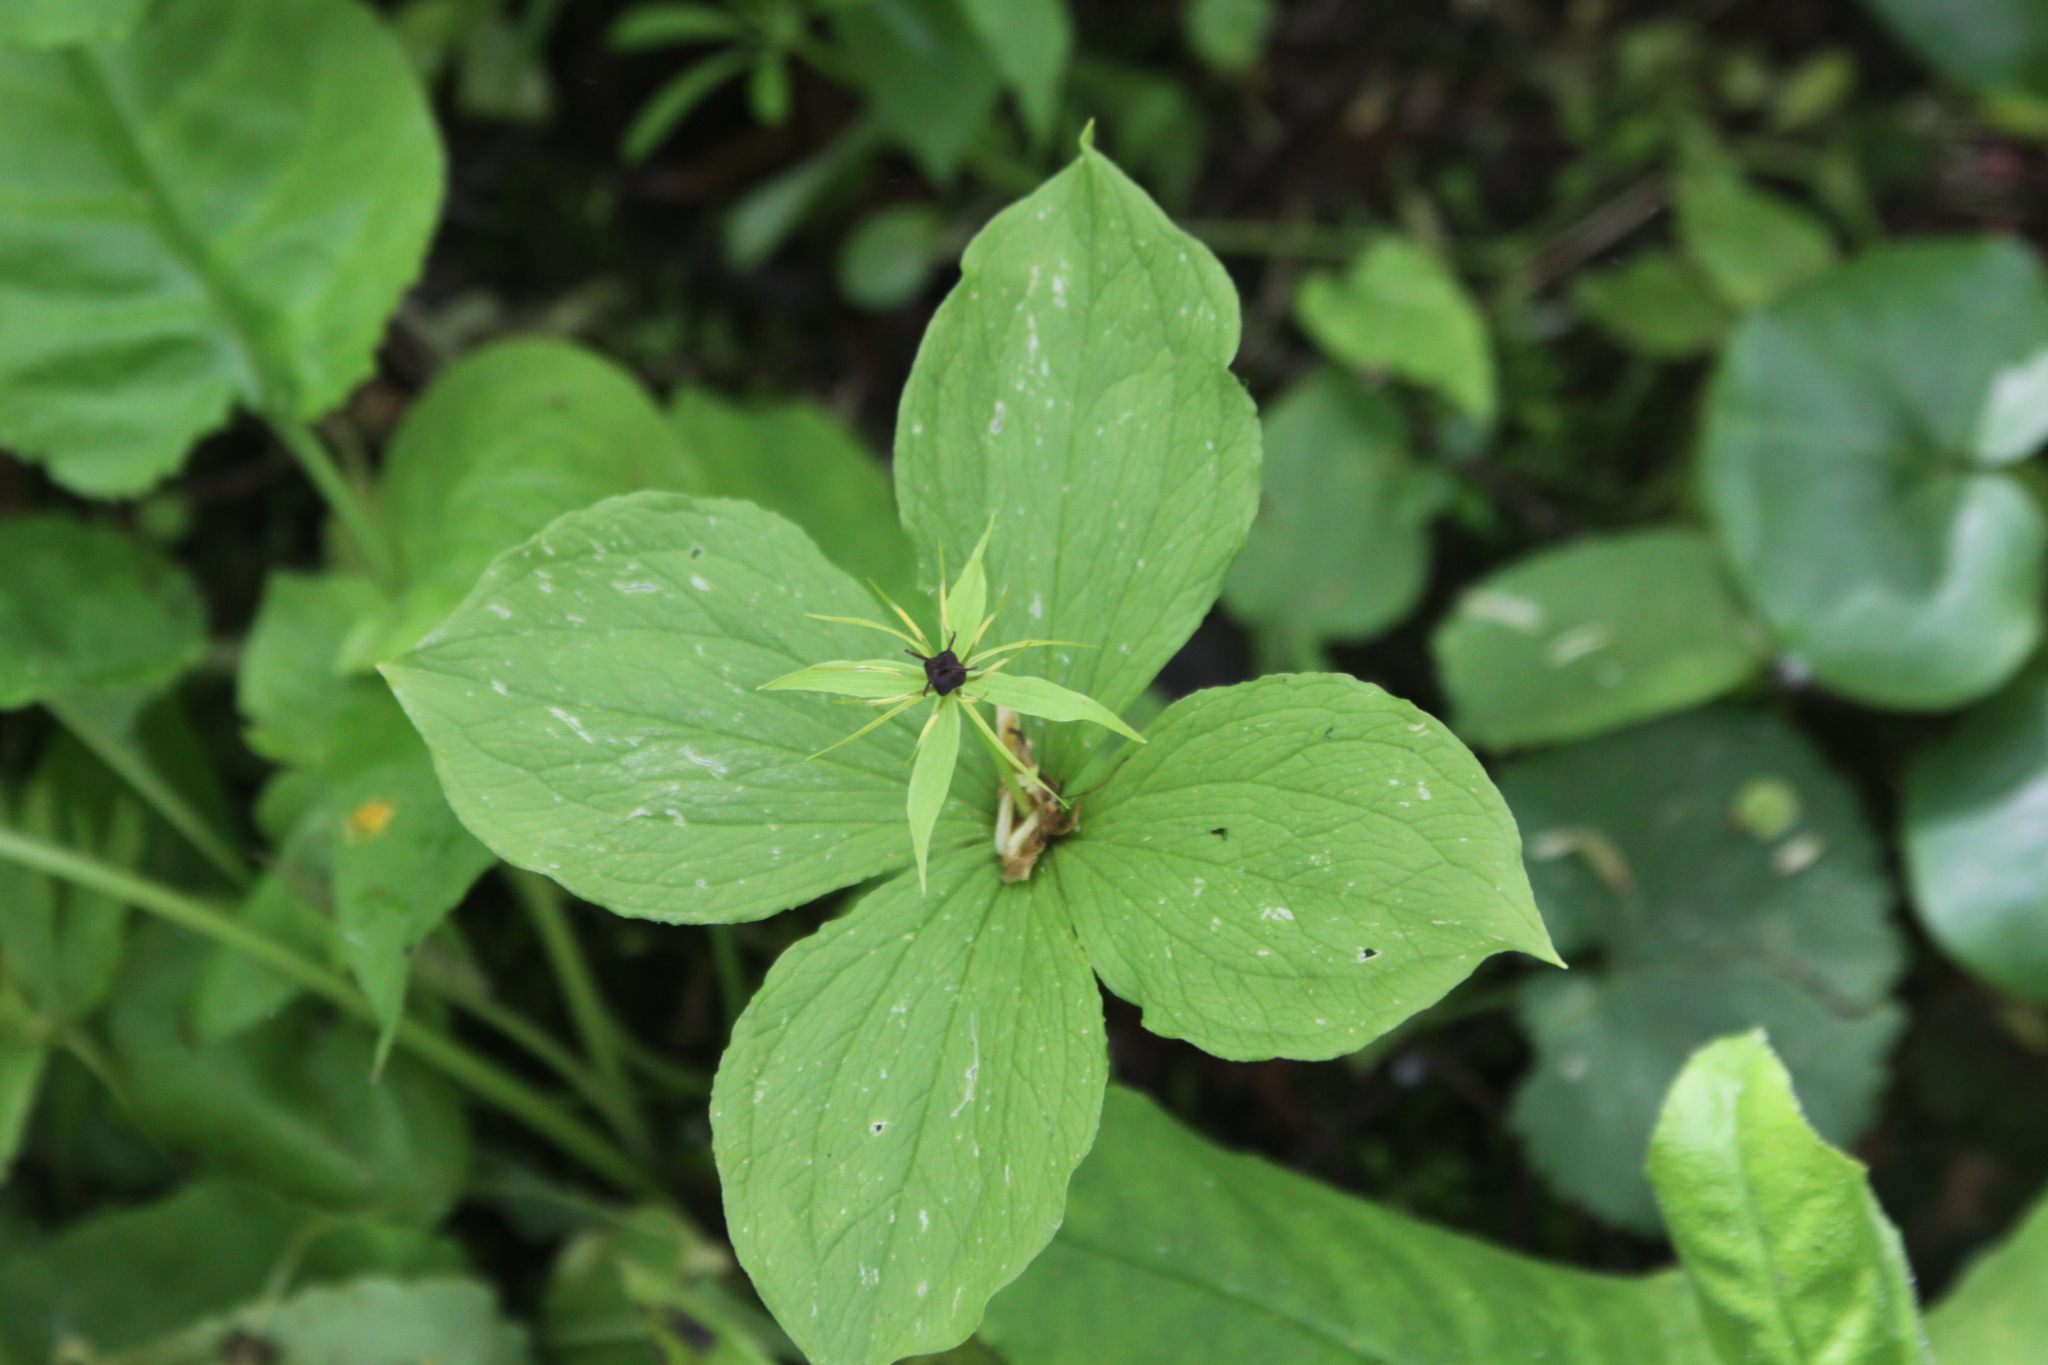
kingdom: Plantae
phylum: Tracheophyta
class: Liliopsida
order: Liliales
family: Melanthiaceae
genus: Paris
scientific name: Paris quadrifolia
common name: Herb-paris
